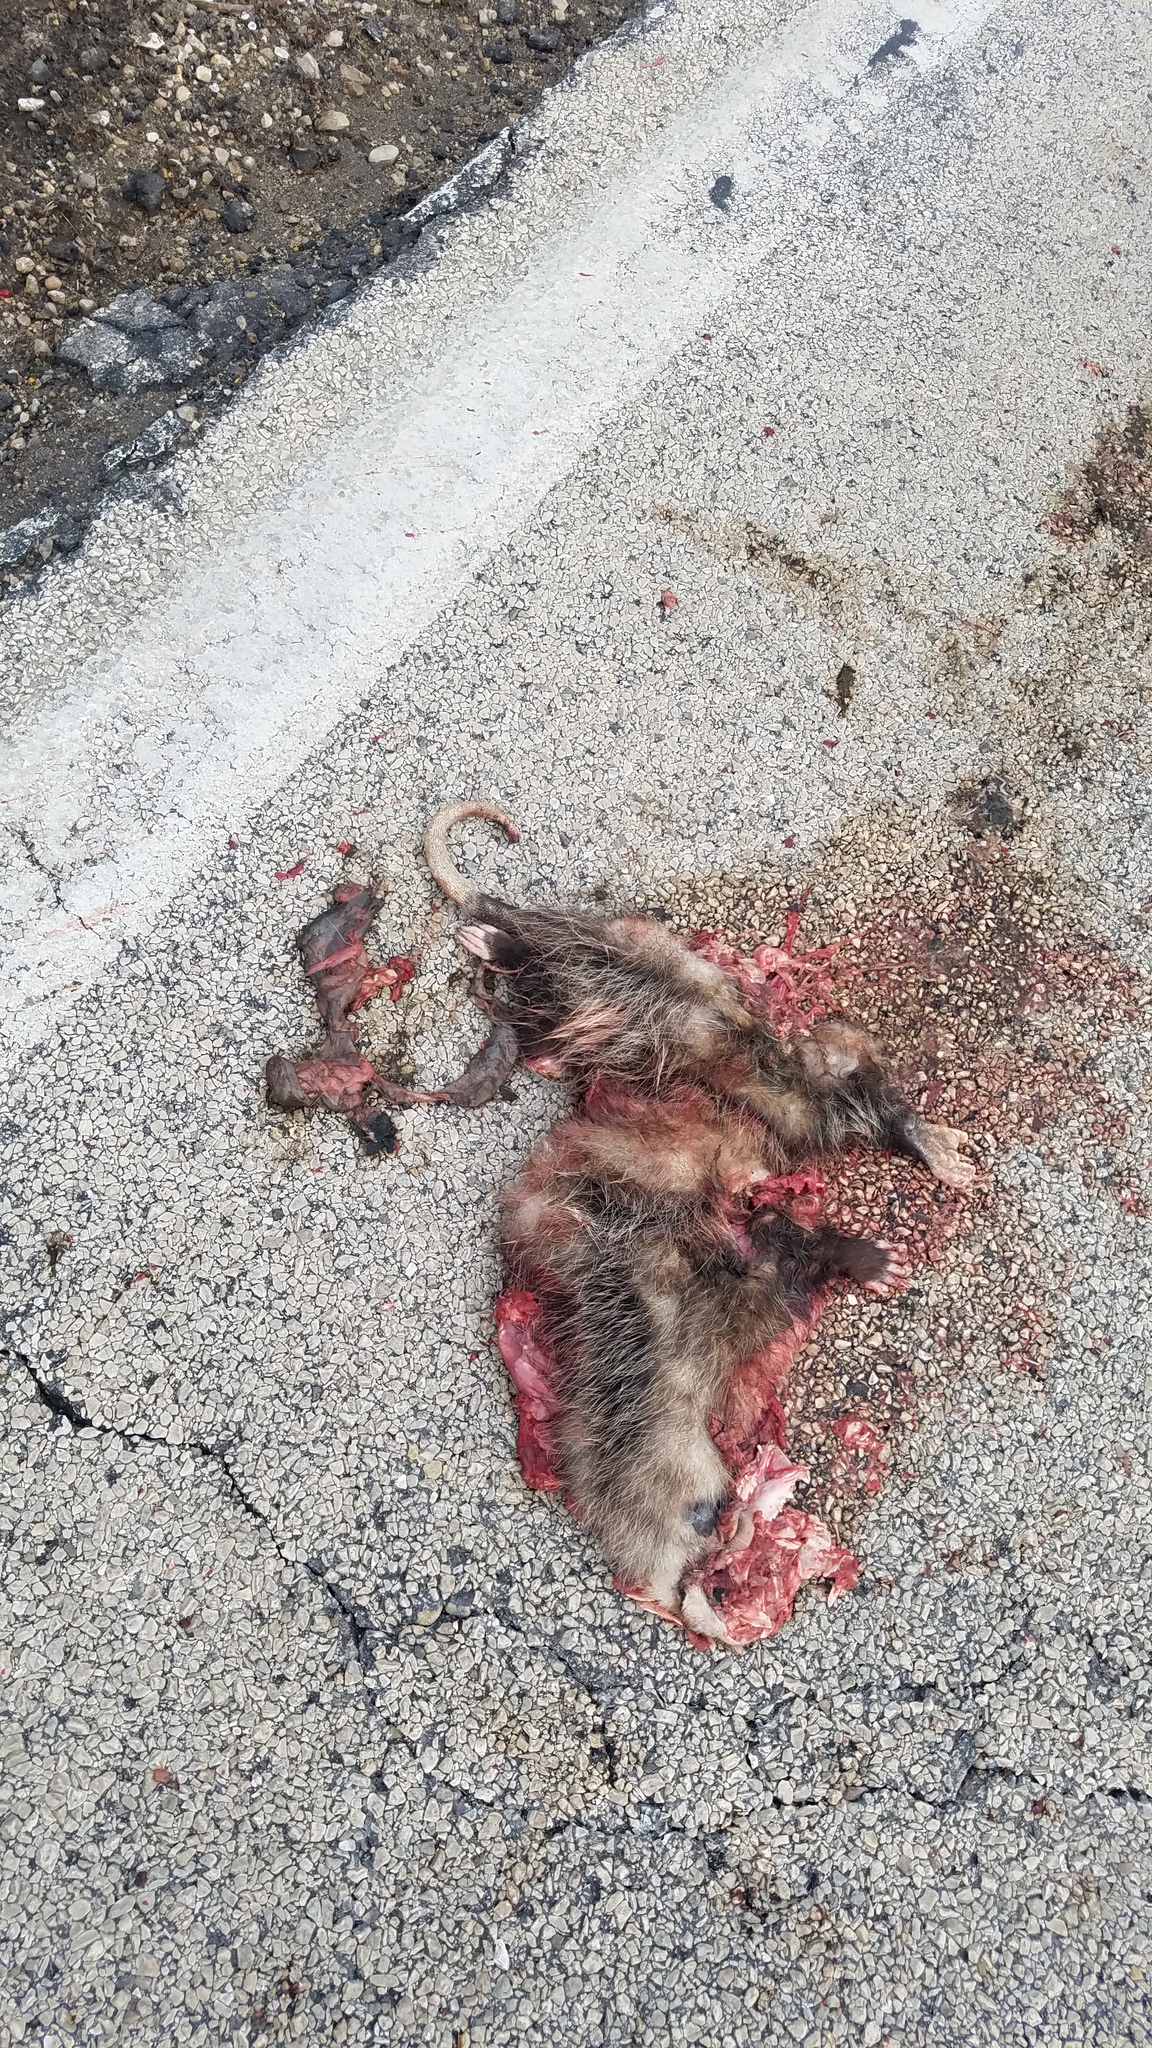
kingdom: Animalia
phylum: Chordata
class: Mammalia
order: Didelphimorphia
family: Didelphidae
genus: Didelphis
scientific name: Didelphis virginiana
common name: Virginia opossum
